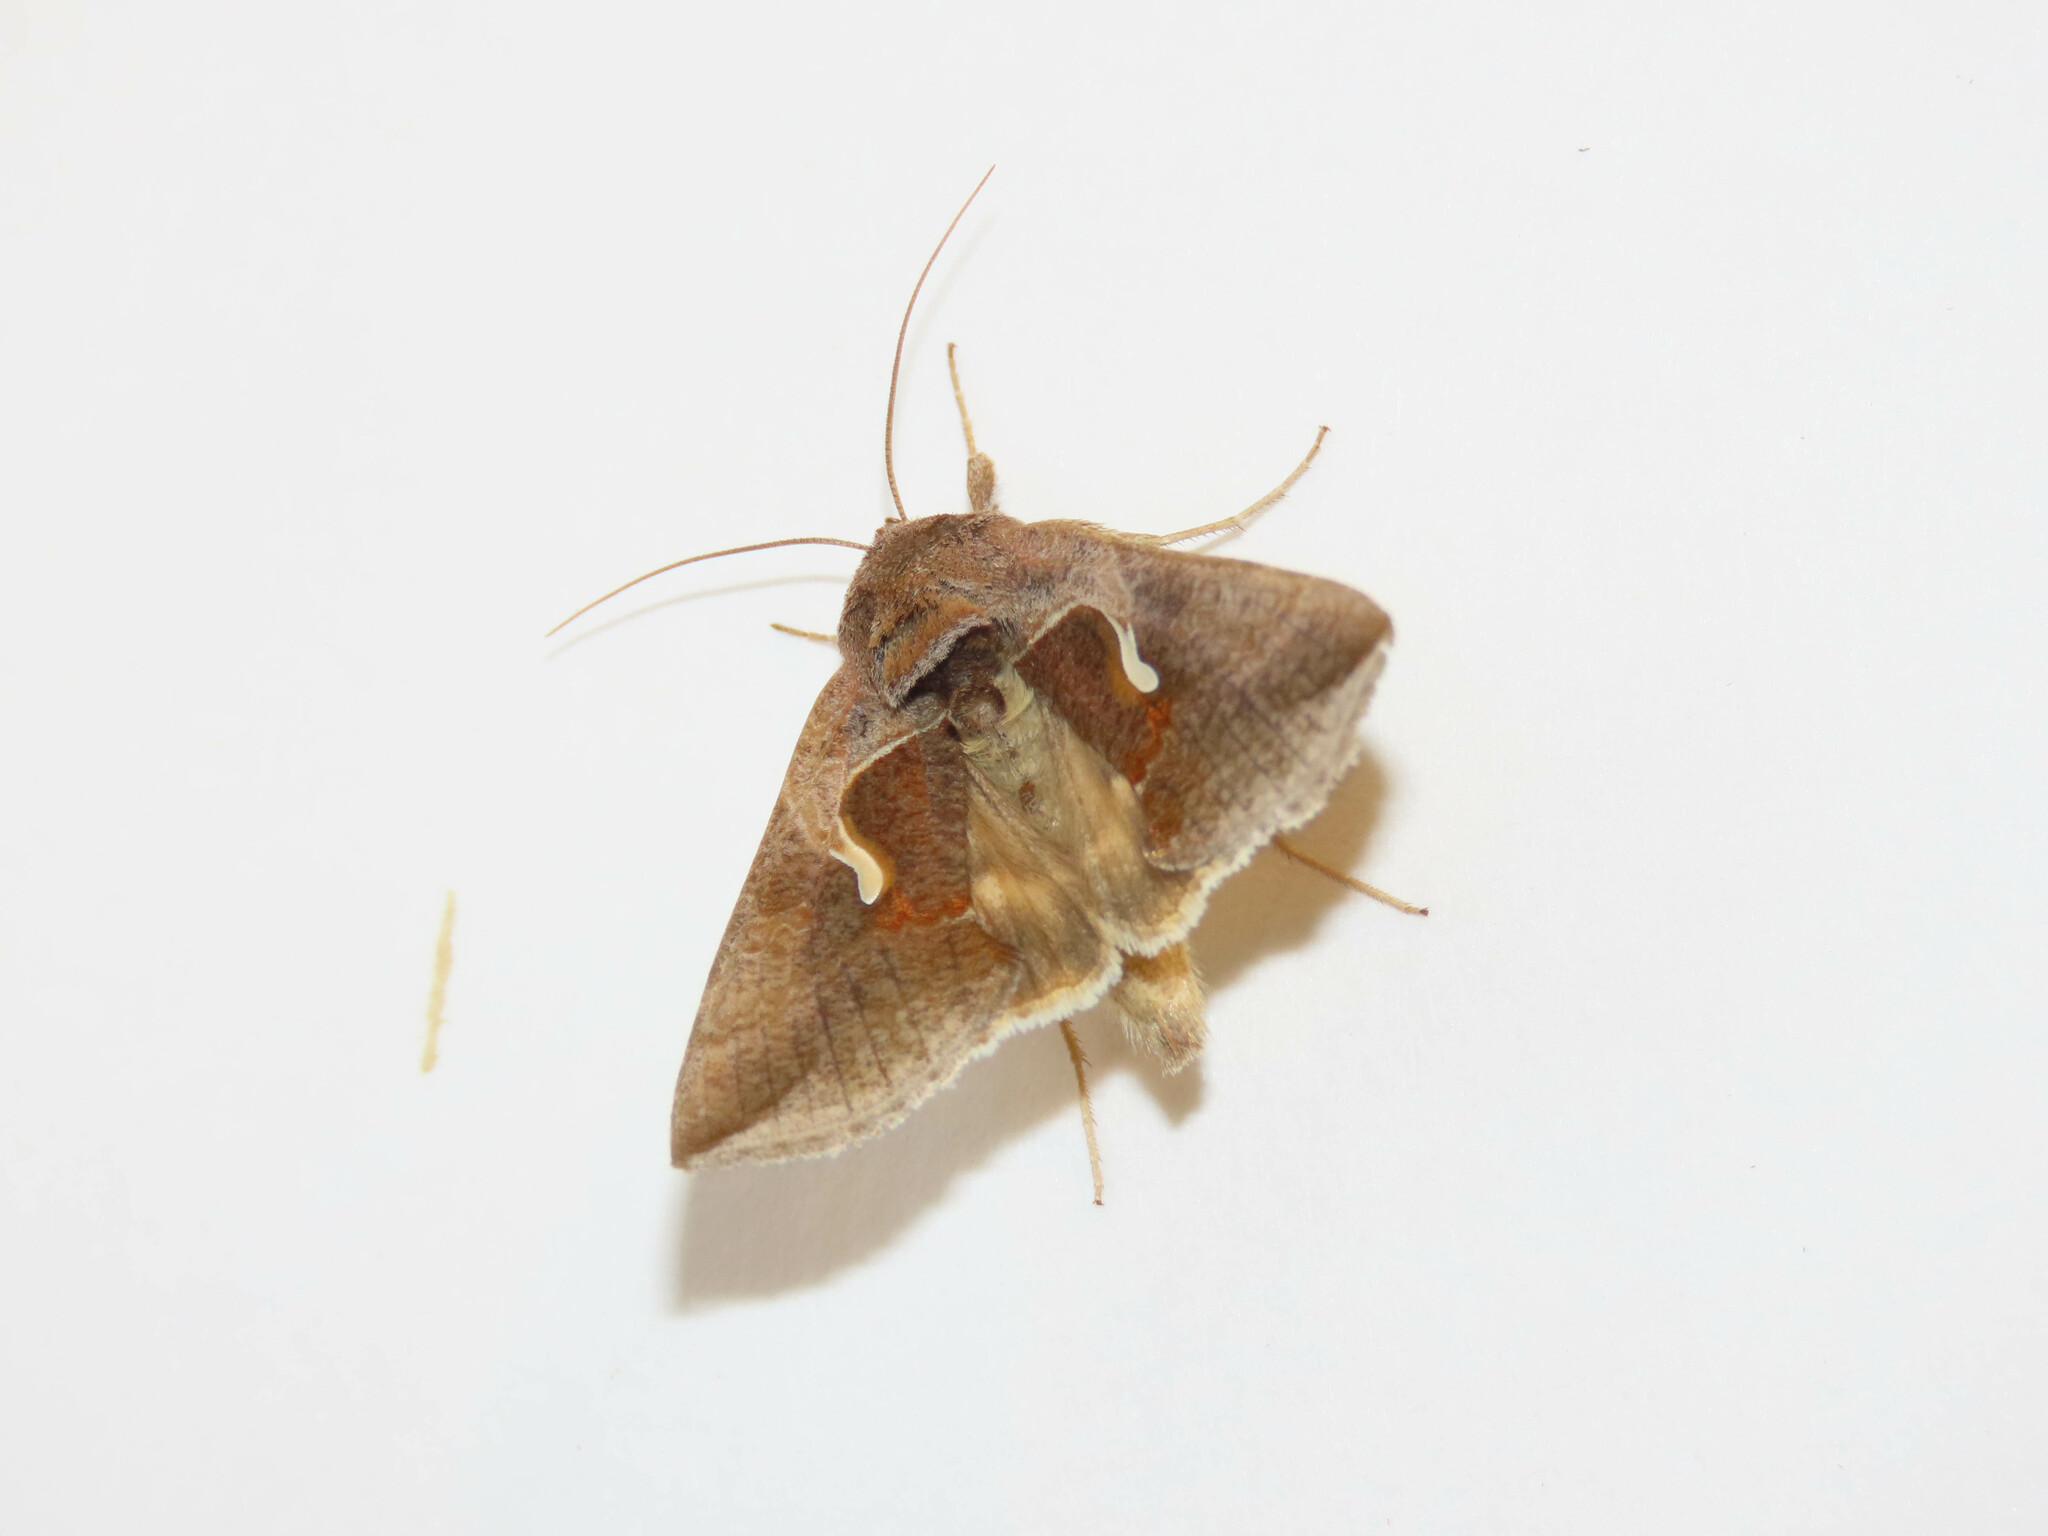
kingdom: Animalia
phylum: Arthropoda
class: Insecta
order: Lepidoptera
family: Noctuidae
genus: Anagrapha
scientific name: Anagrapha falcifera
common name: Celery looper
